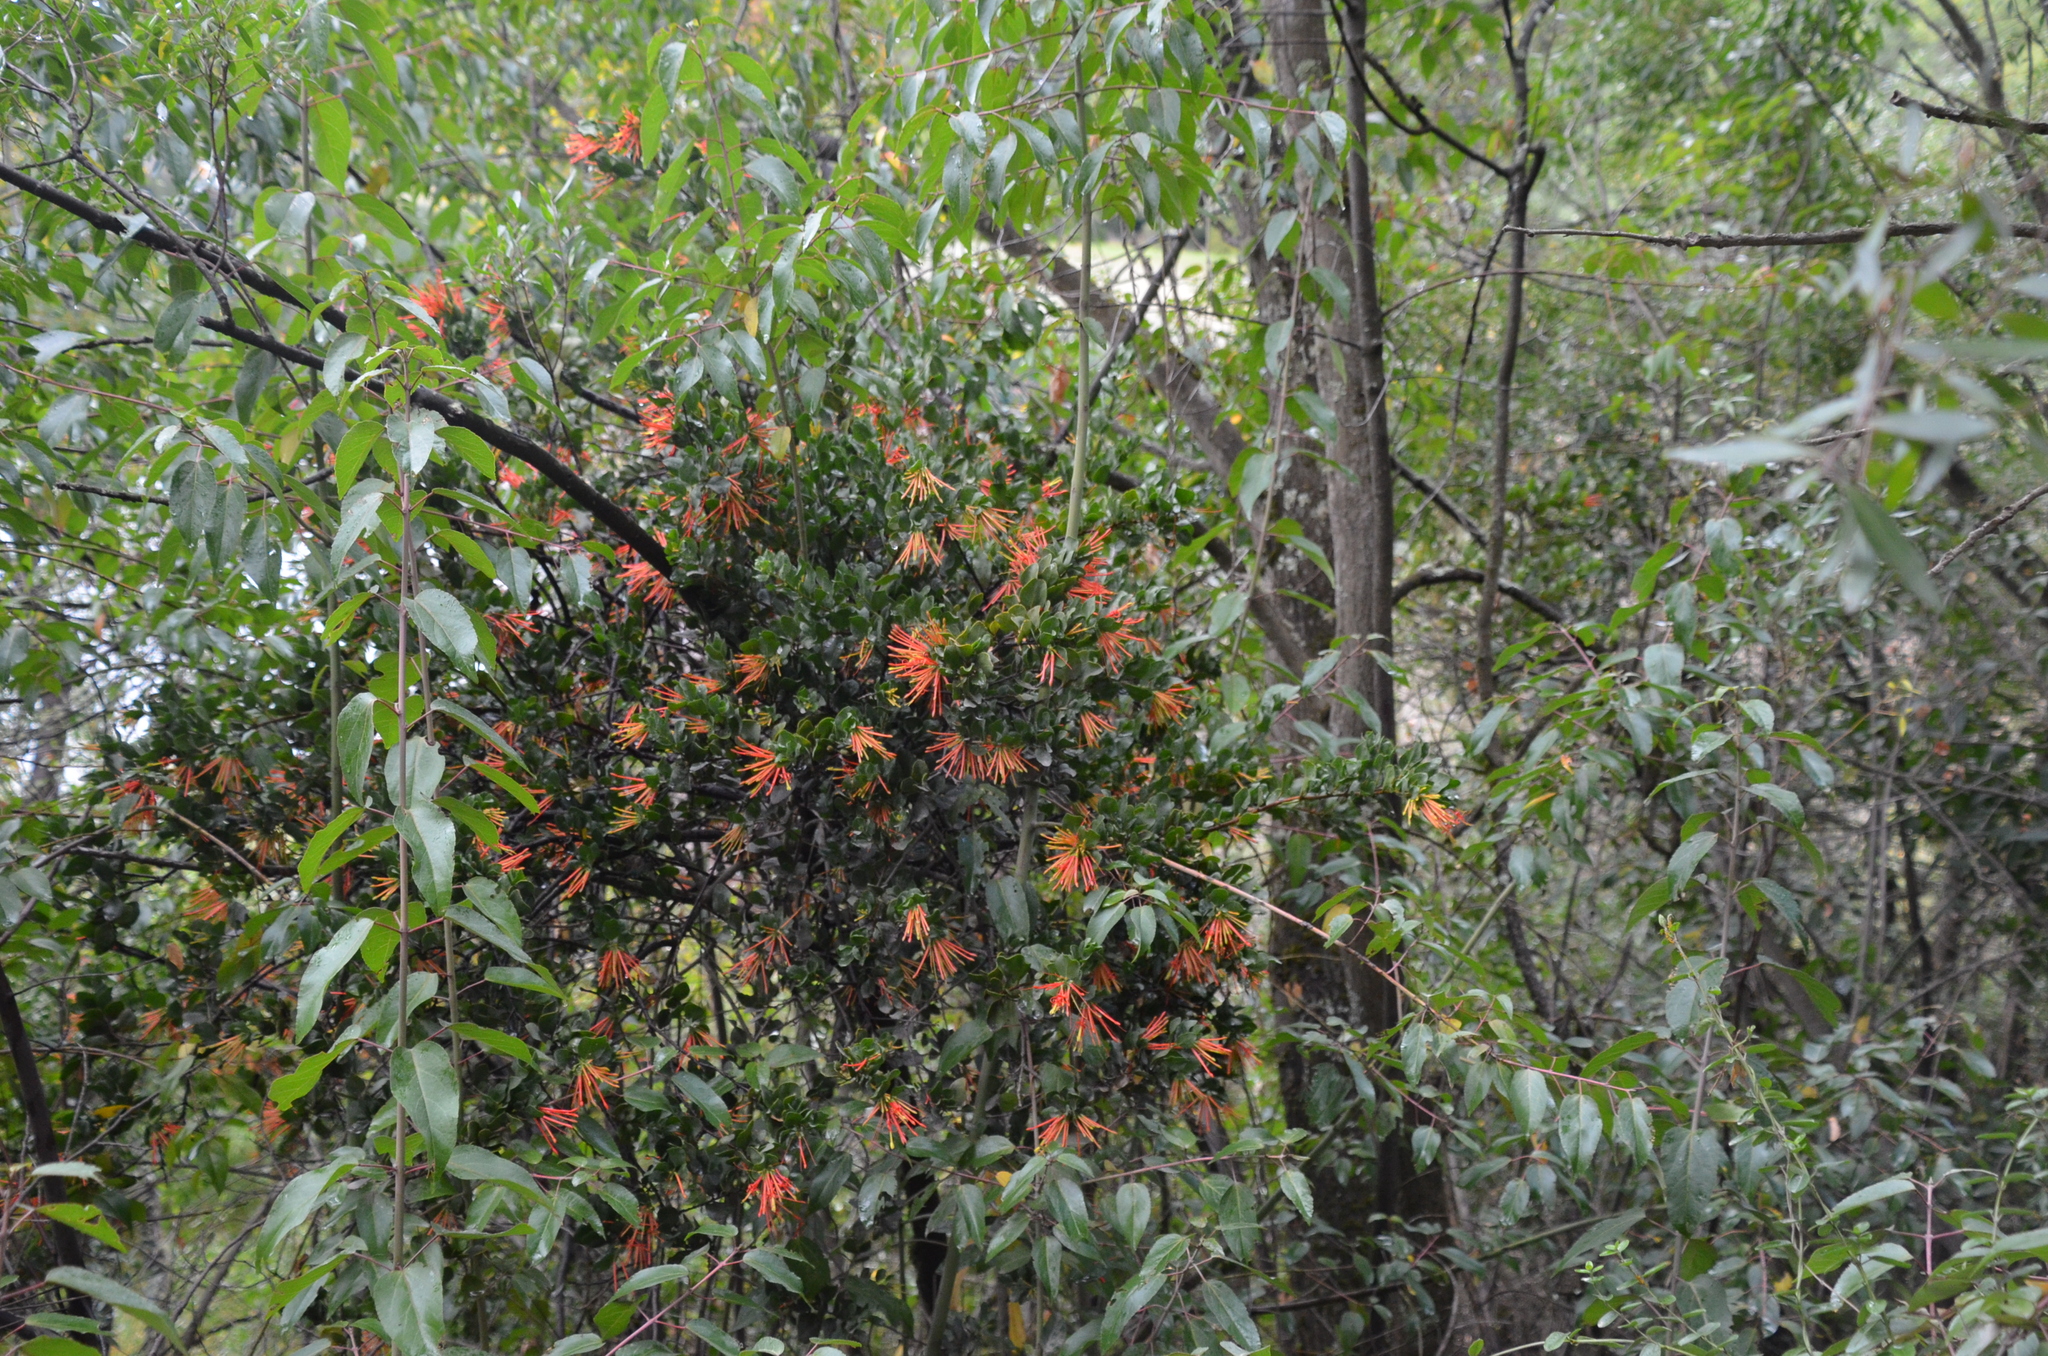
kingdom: Plantae
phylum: Tracheophyta
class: Magnoliopsida
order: Santalales
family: Loranthaceae
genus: Tristerix
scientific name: Tristerix corymbosus
